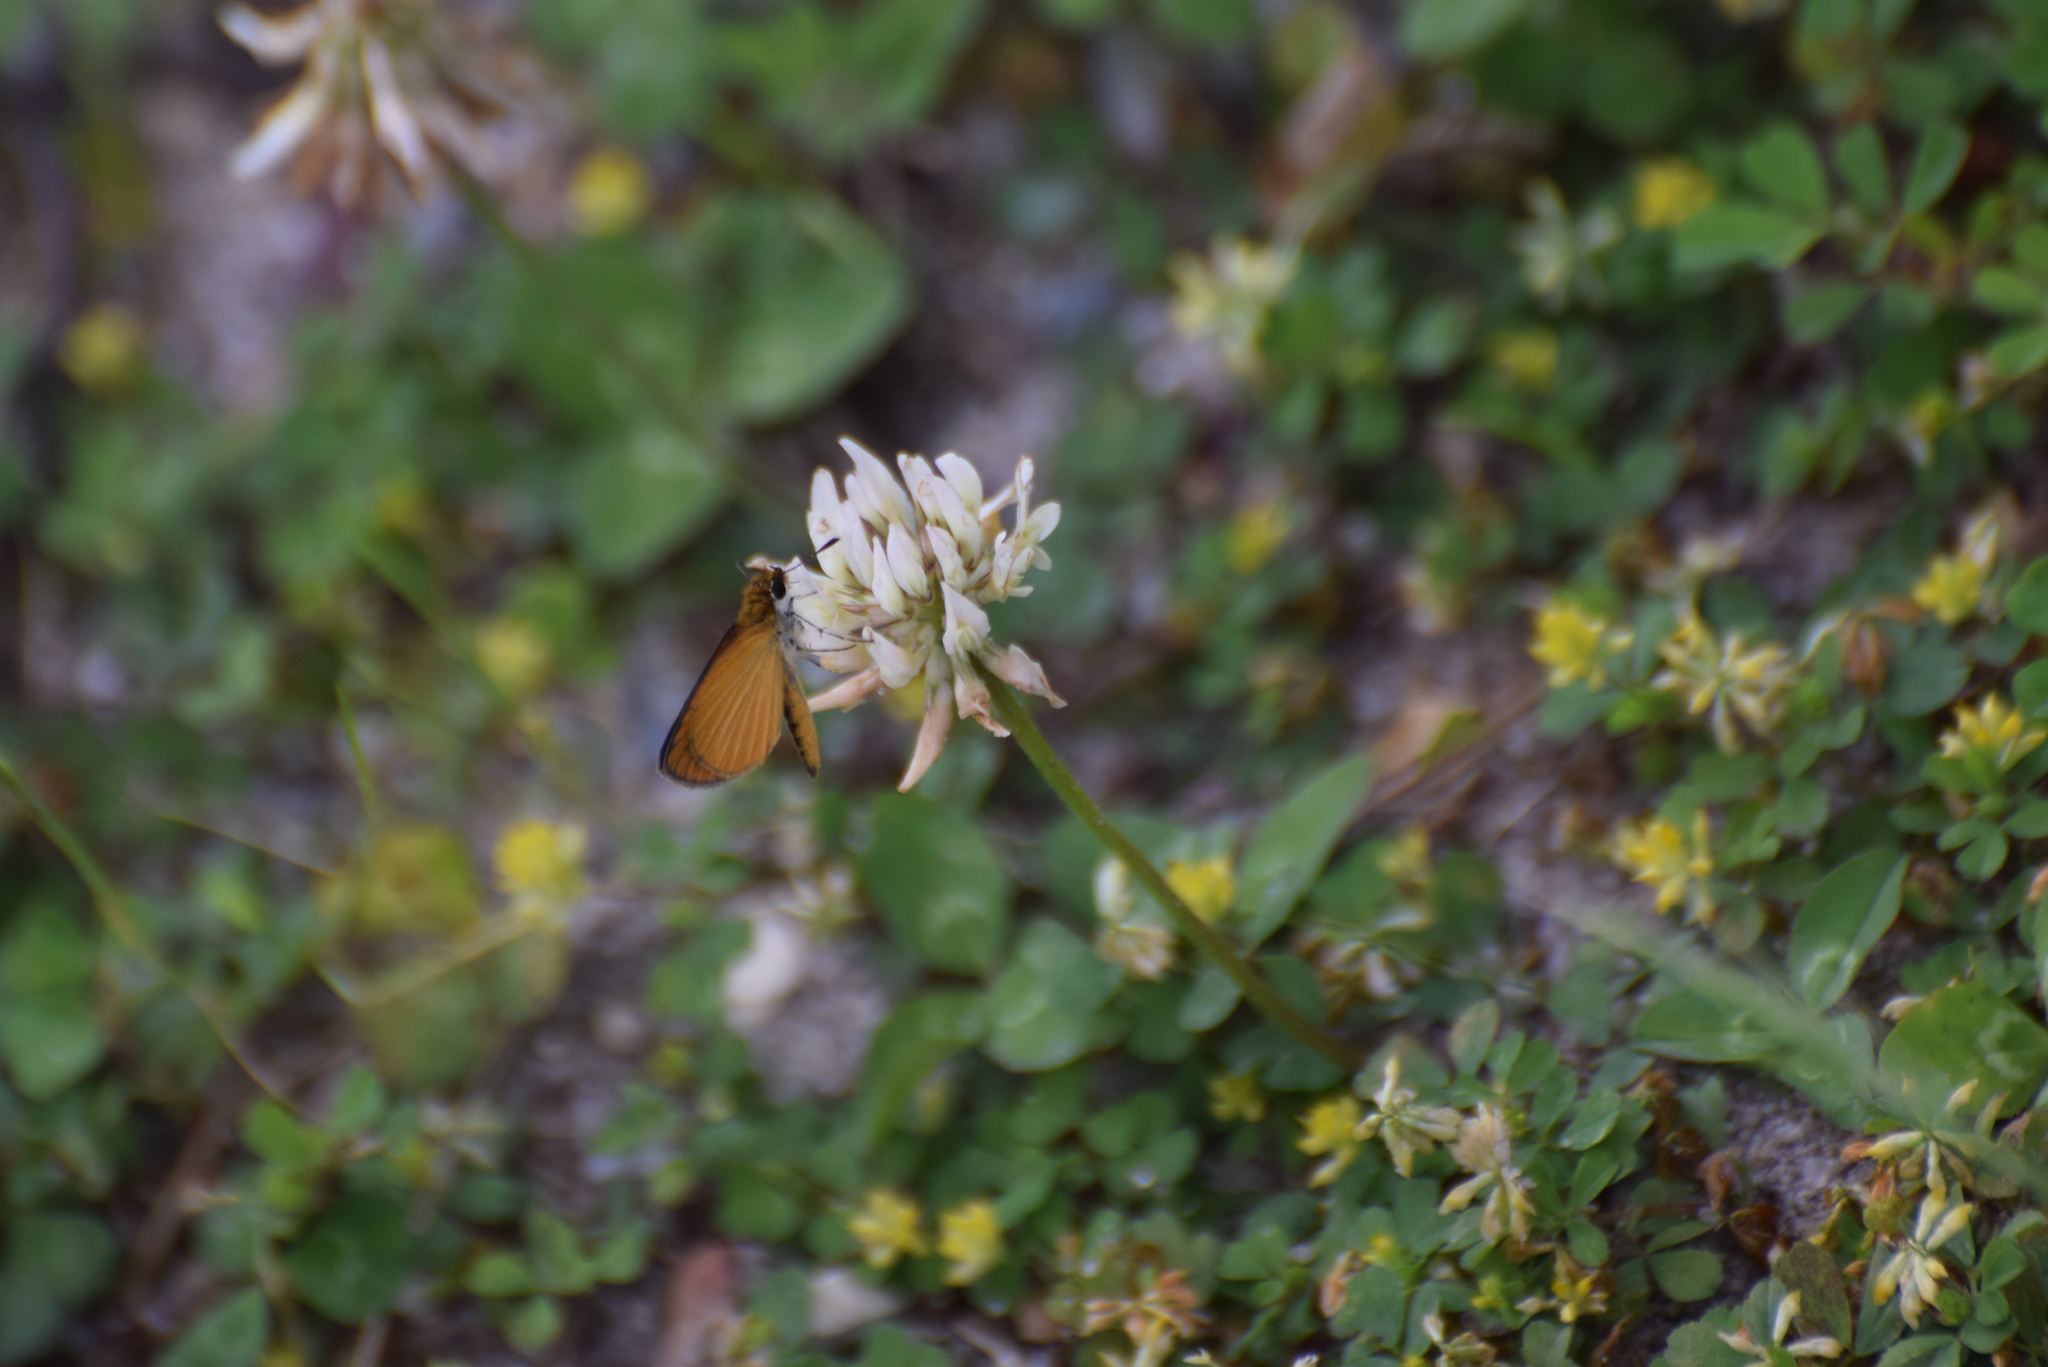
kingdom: Animalia
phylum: Arthropoda
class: Insecta
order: Lepidoptera
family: Hesperiidae
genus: Ancyloxypha
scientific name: Ancyloxypha numitor
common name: Least skipper
